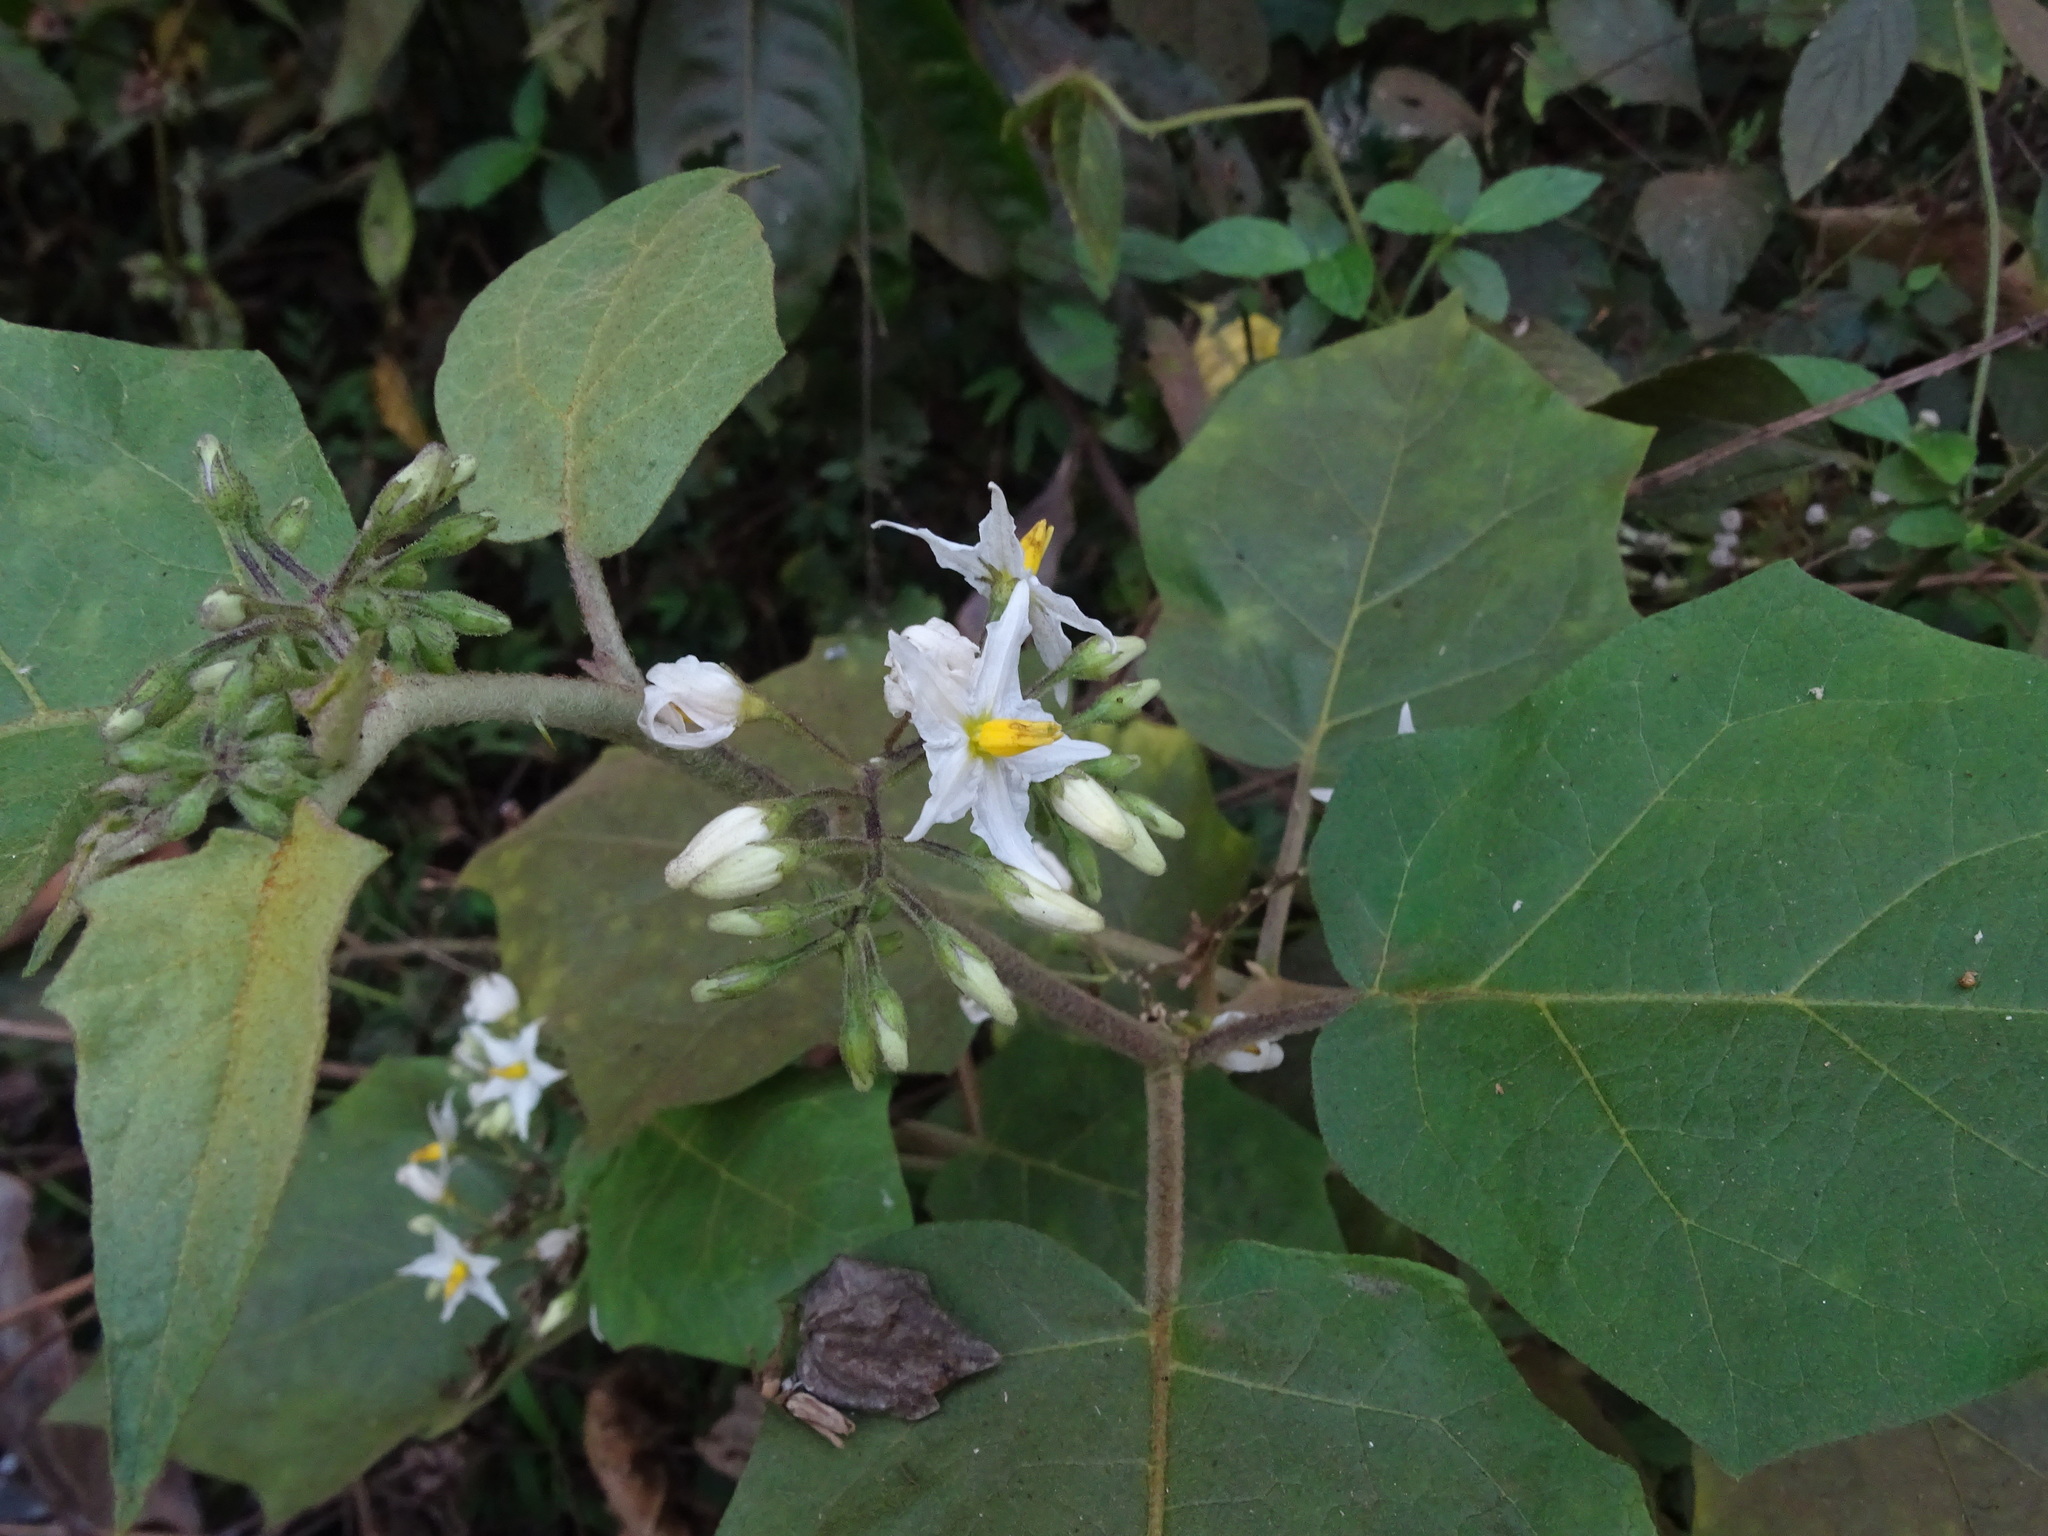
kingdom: Plantae
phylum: Tracheophyta
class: Magnoliopsida
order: Solanales
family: Solanaceae
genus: Solanum
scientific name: Solanum torvum
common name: Turkey berry
